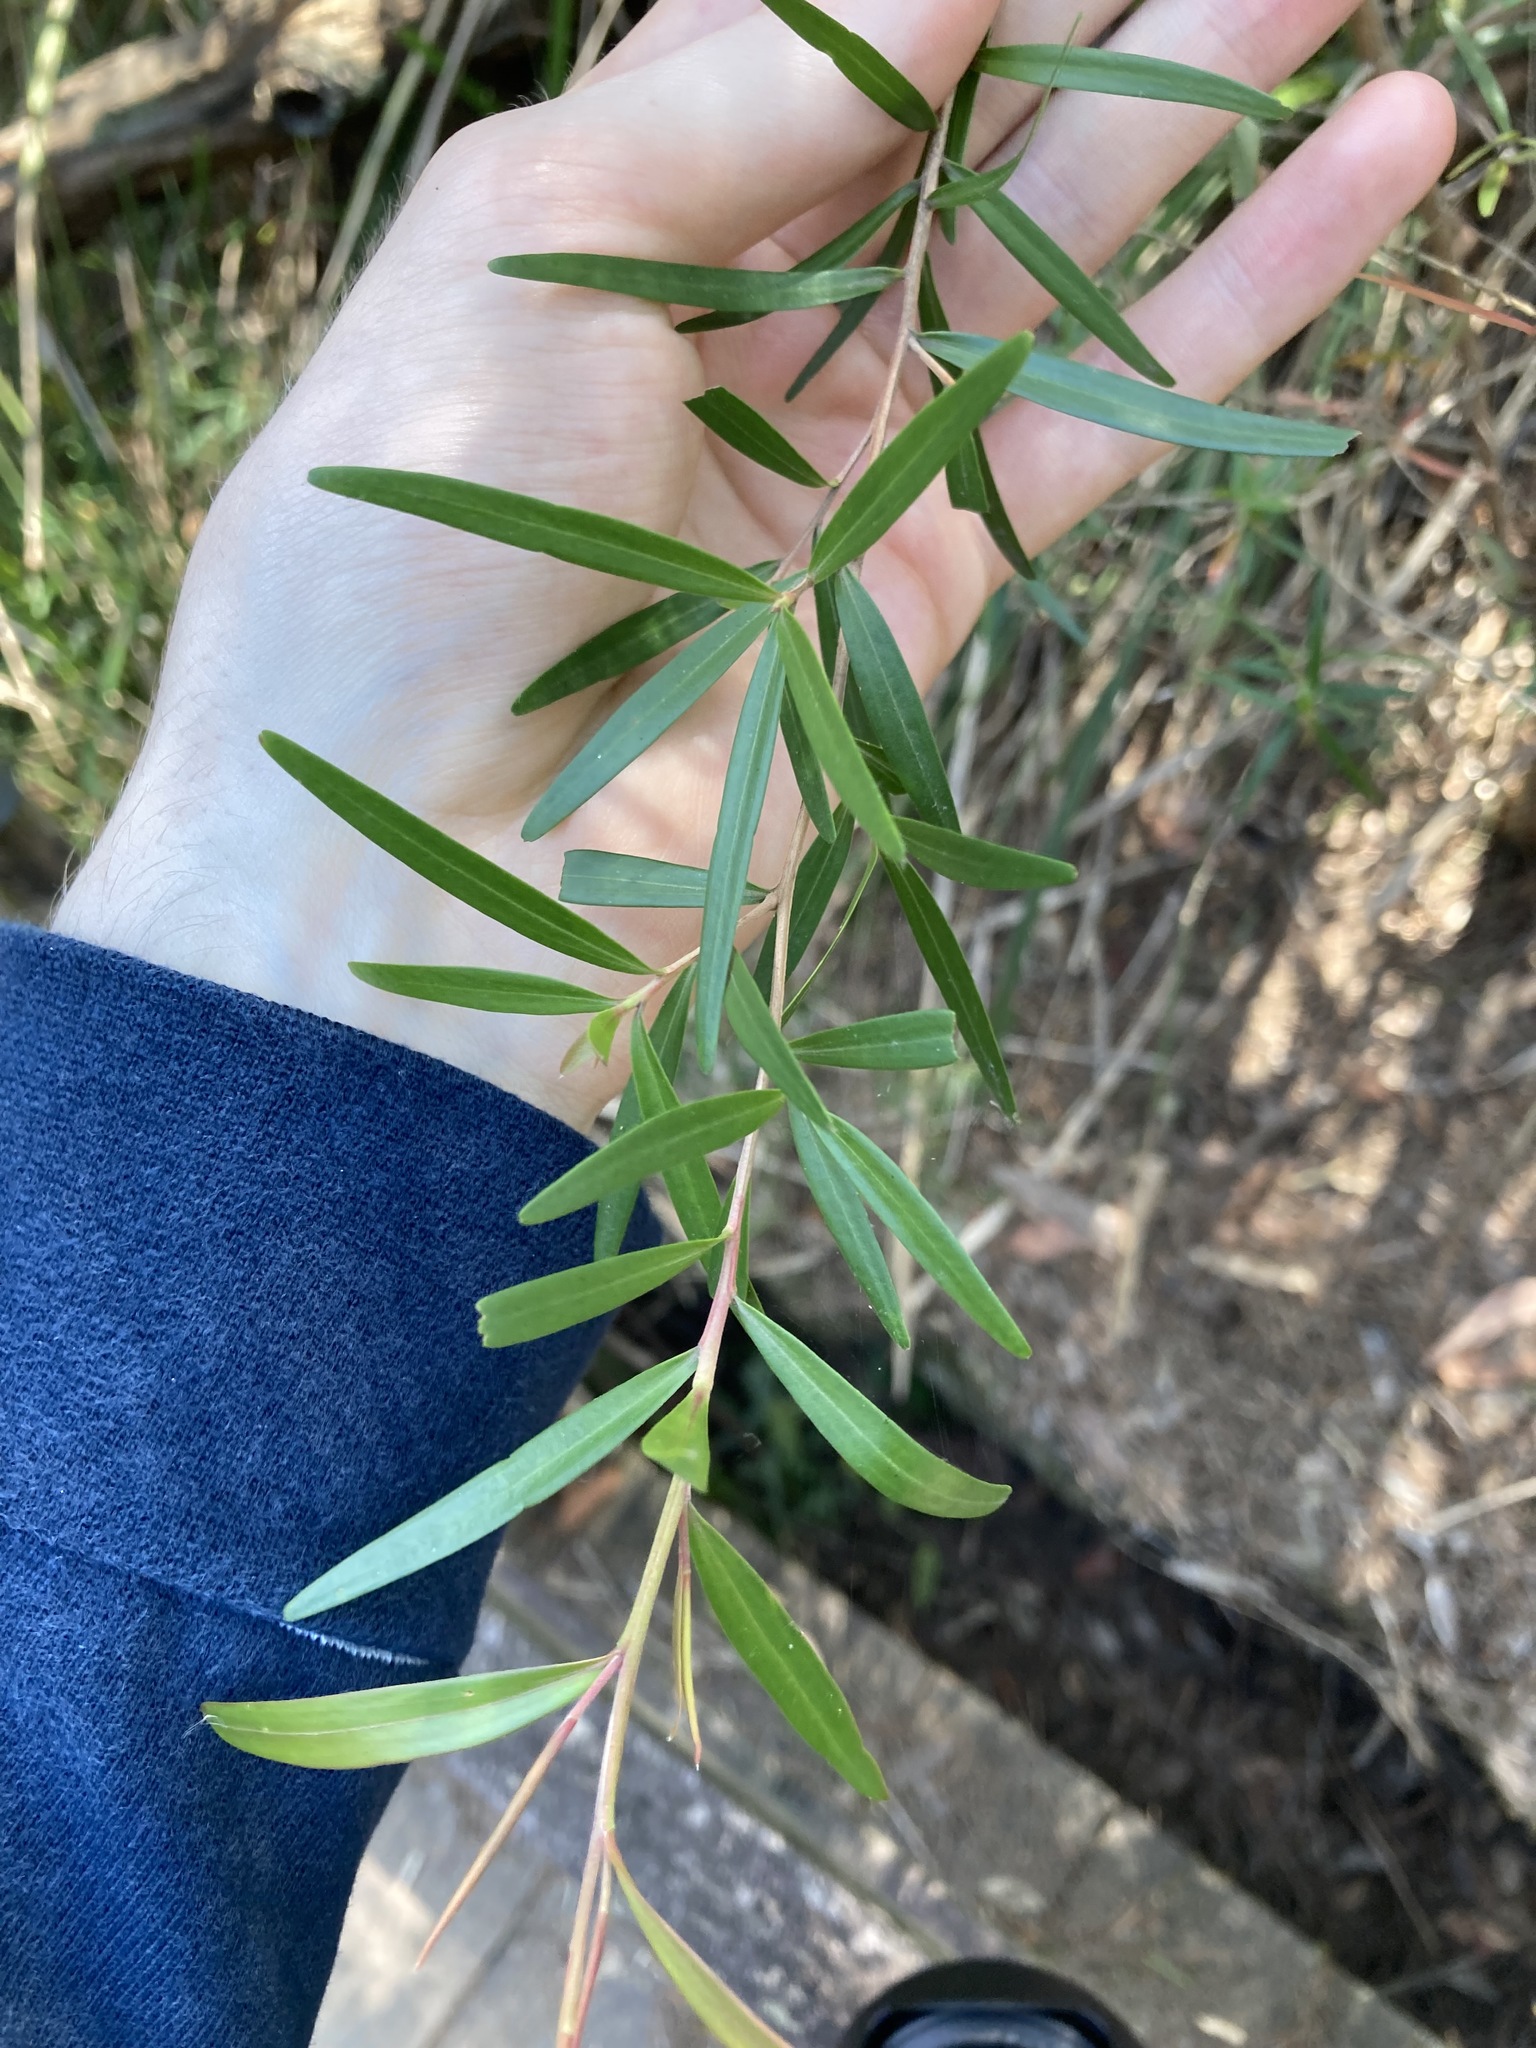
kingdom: Plantae
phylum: Tracheophyta
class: Magnoliopsida
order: Myrtales
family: Myrtaceae
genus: Leptospermum
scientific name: Leptospermum petersonii
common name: Common teatree
